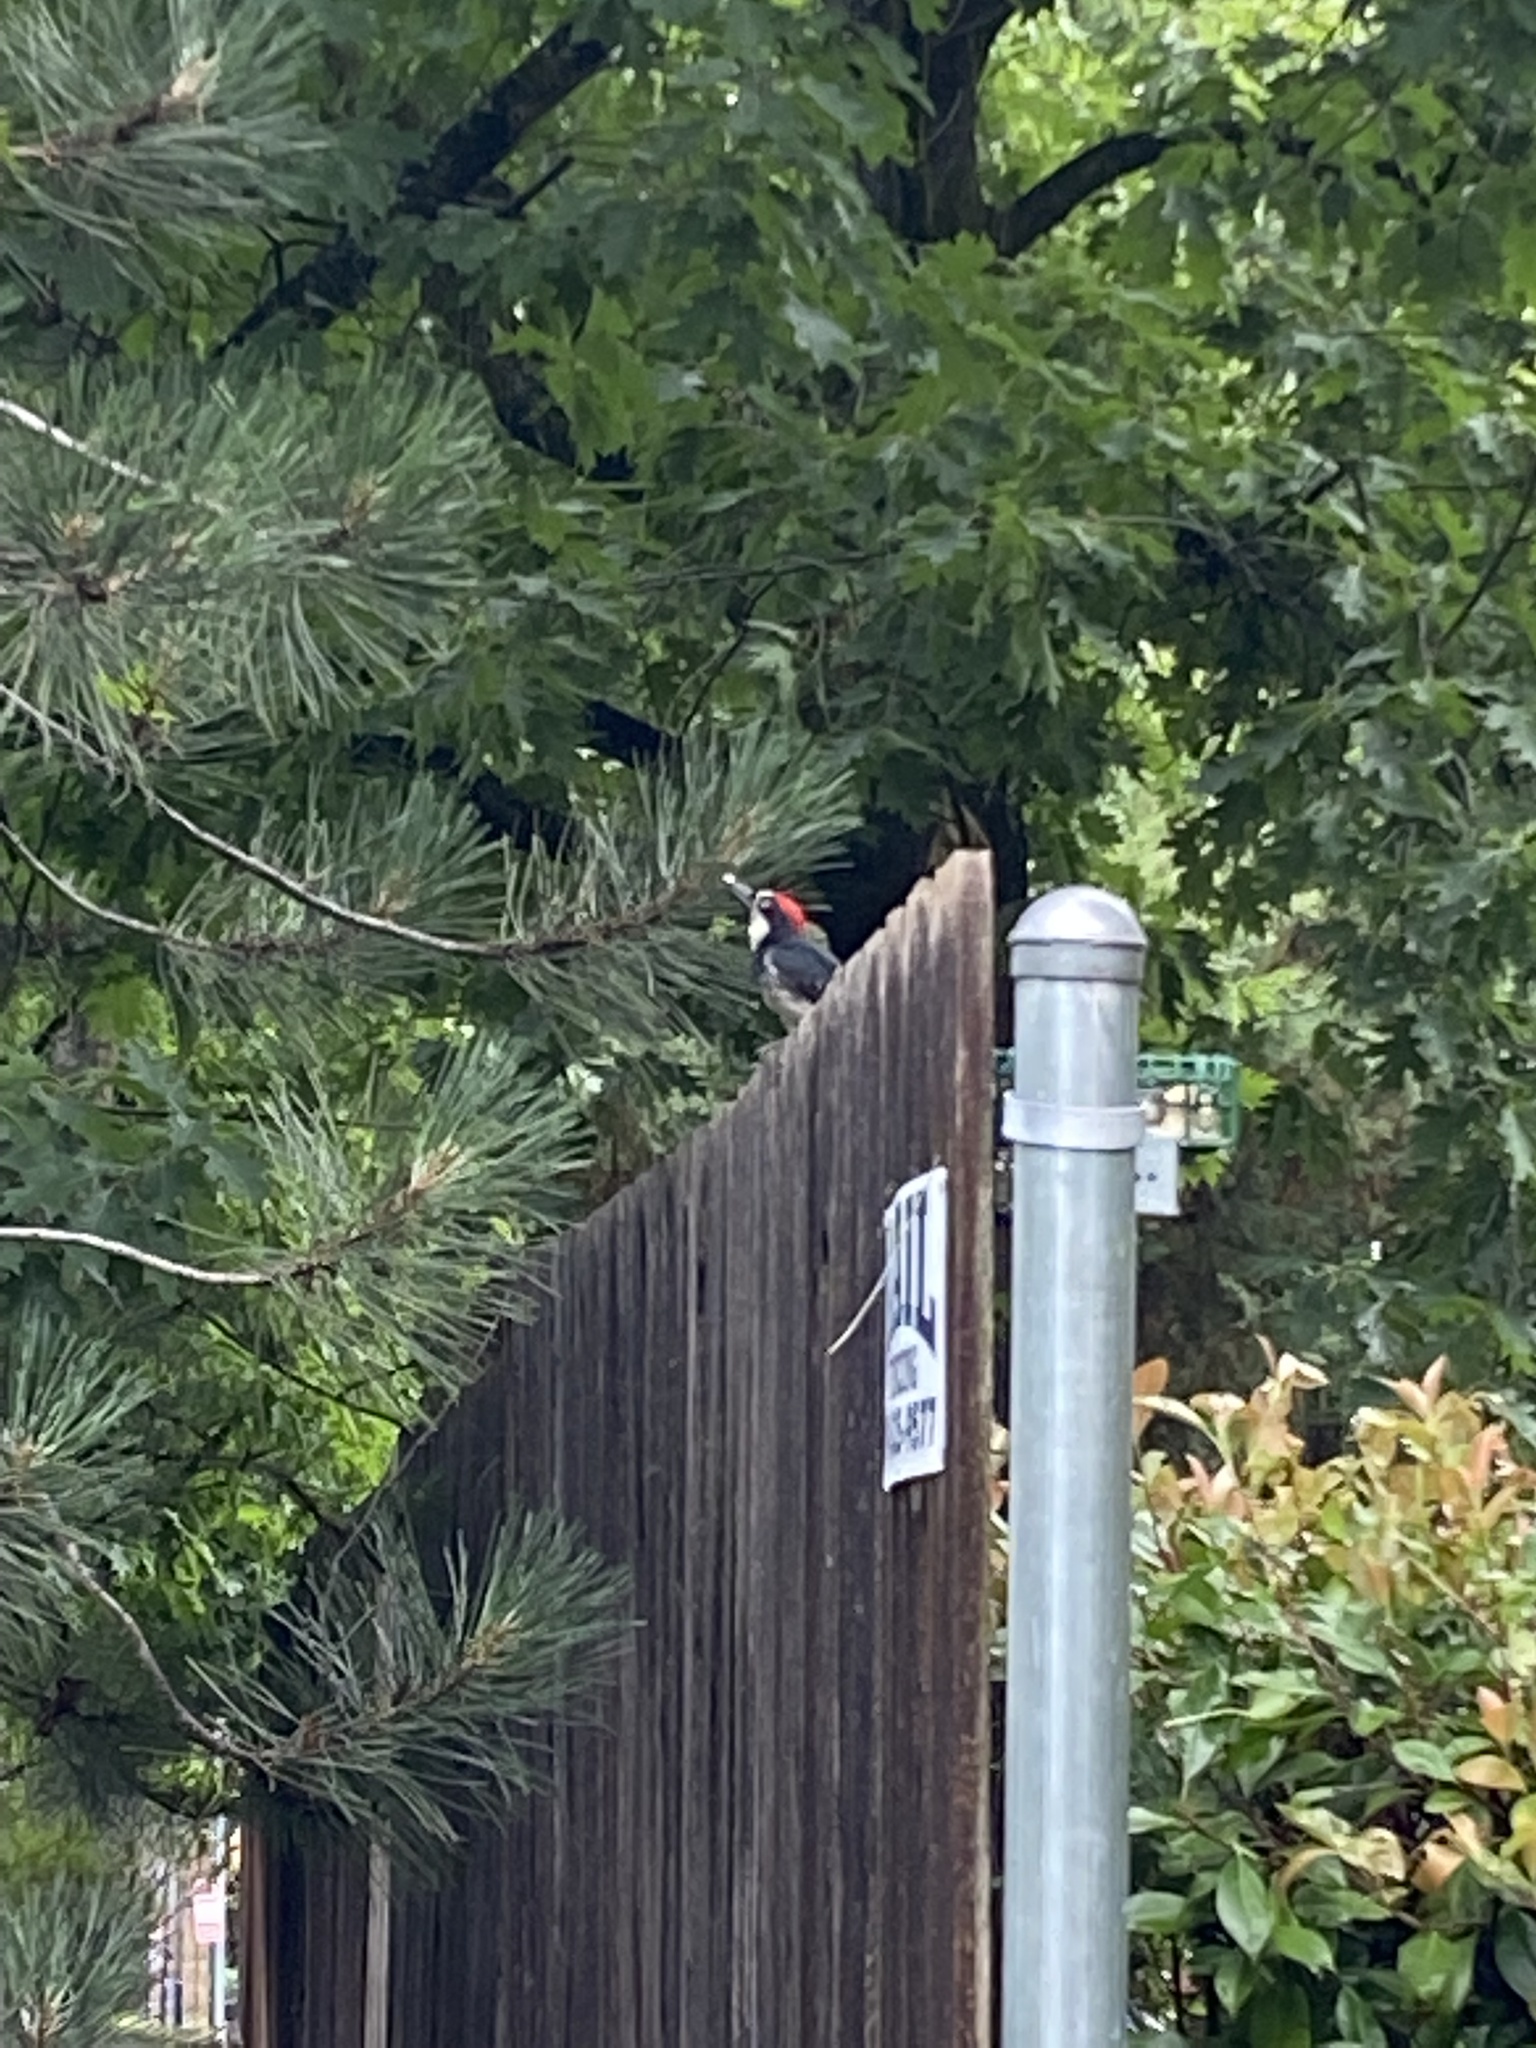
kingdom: Animalia
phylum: Chordata
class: Aves
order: Piciformes
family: Picidae
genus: Melanerpes
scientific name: Melanerpes formicivorus
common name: Acorn woodpecker
